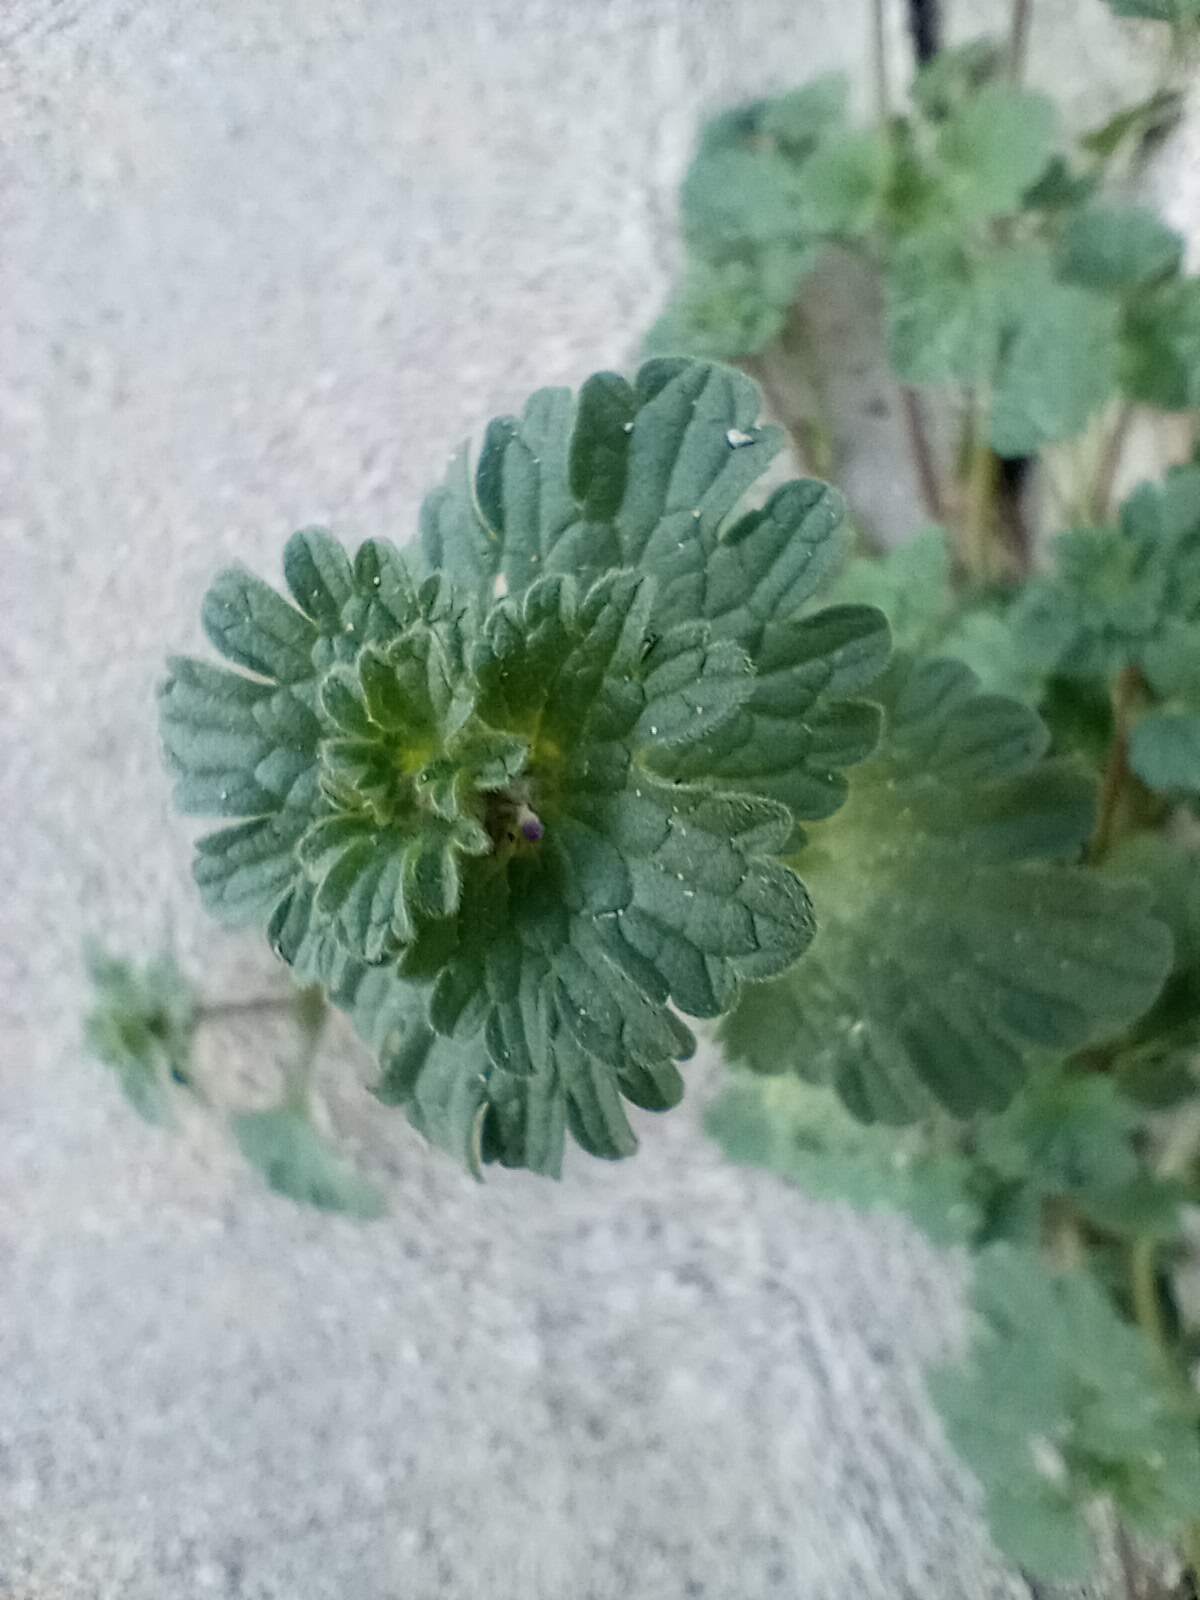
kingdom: Plantae
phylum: Tracheophyta
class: Magnoliopsida
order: Lamiales
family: Lamiaceae
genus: Lamium
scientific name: Lamium amplexicaule
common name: Henbit dead-nettle
